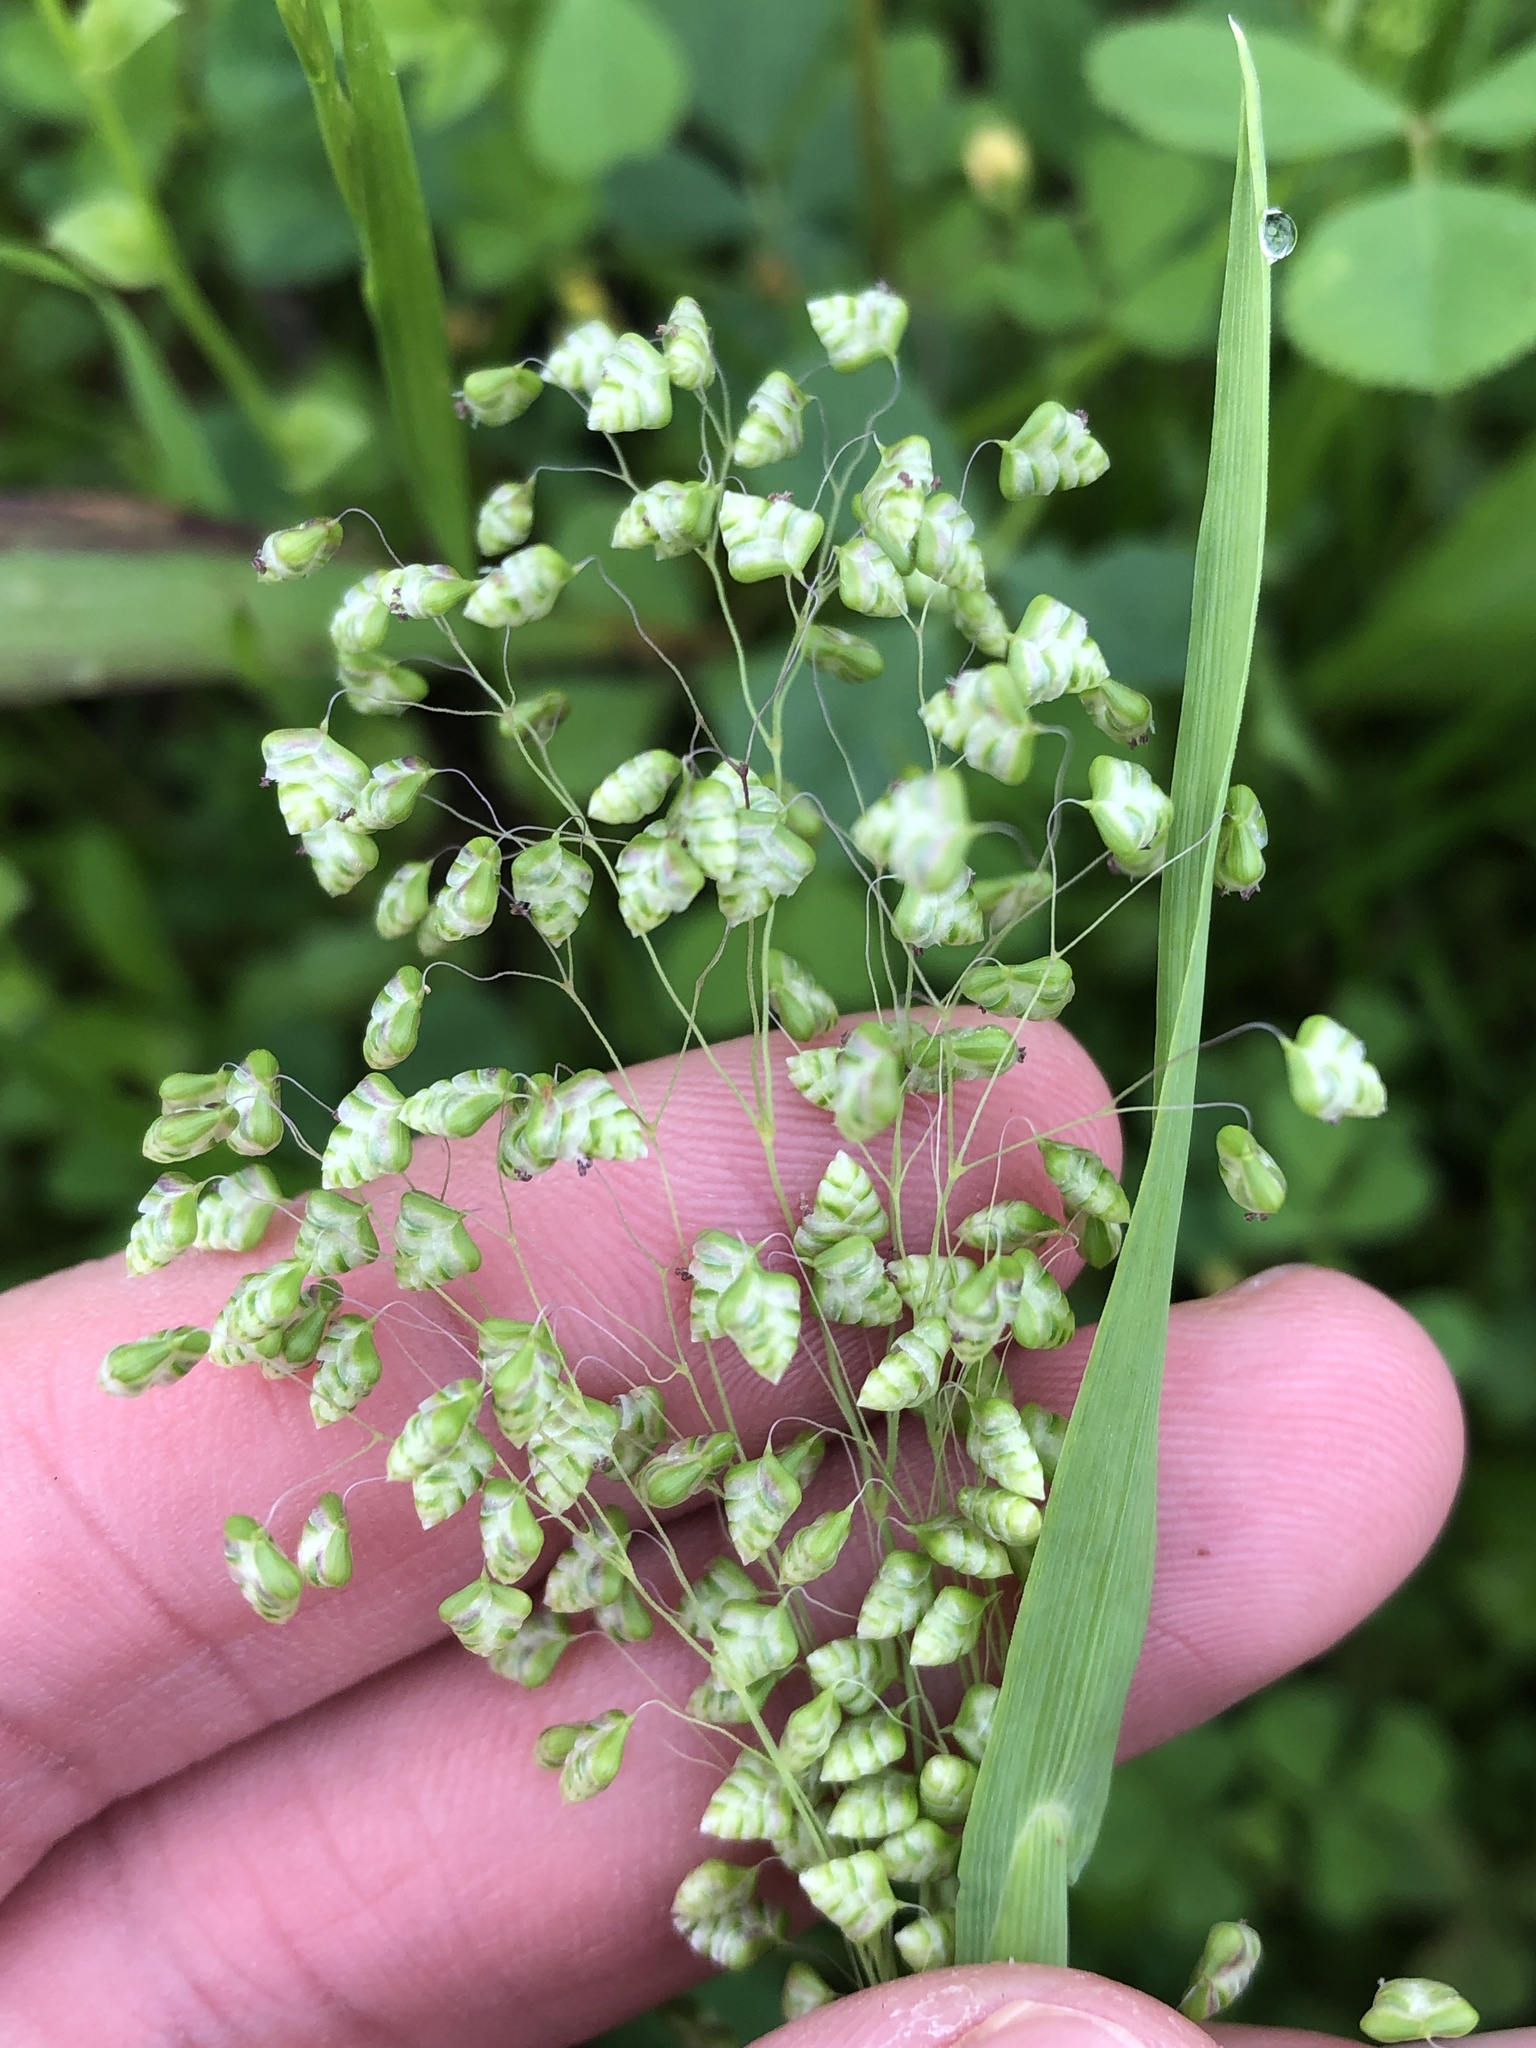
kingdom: Plantae
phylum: Tracheophyta
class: Liliopsida
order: Poales
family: Poaceae
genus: Briza
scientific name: Briza minor
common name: Lesser quaking-grass
